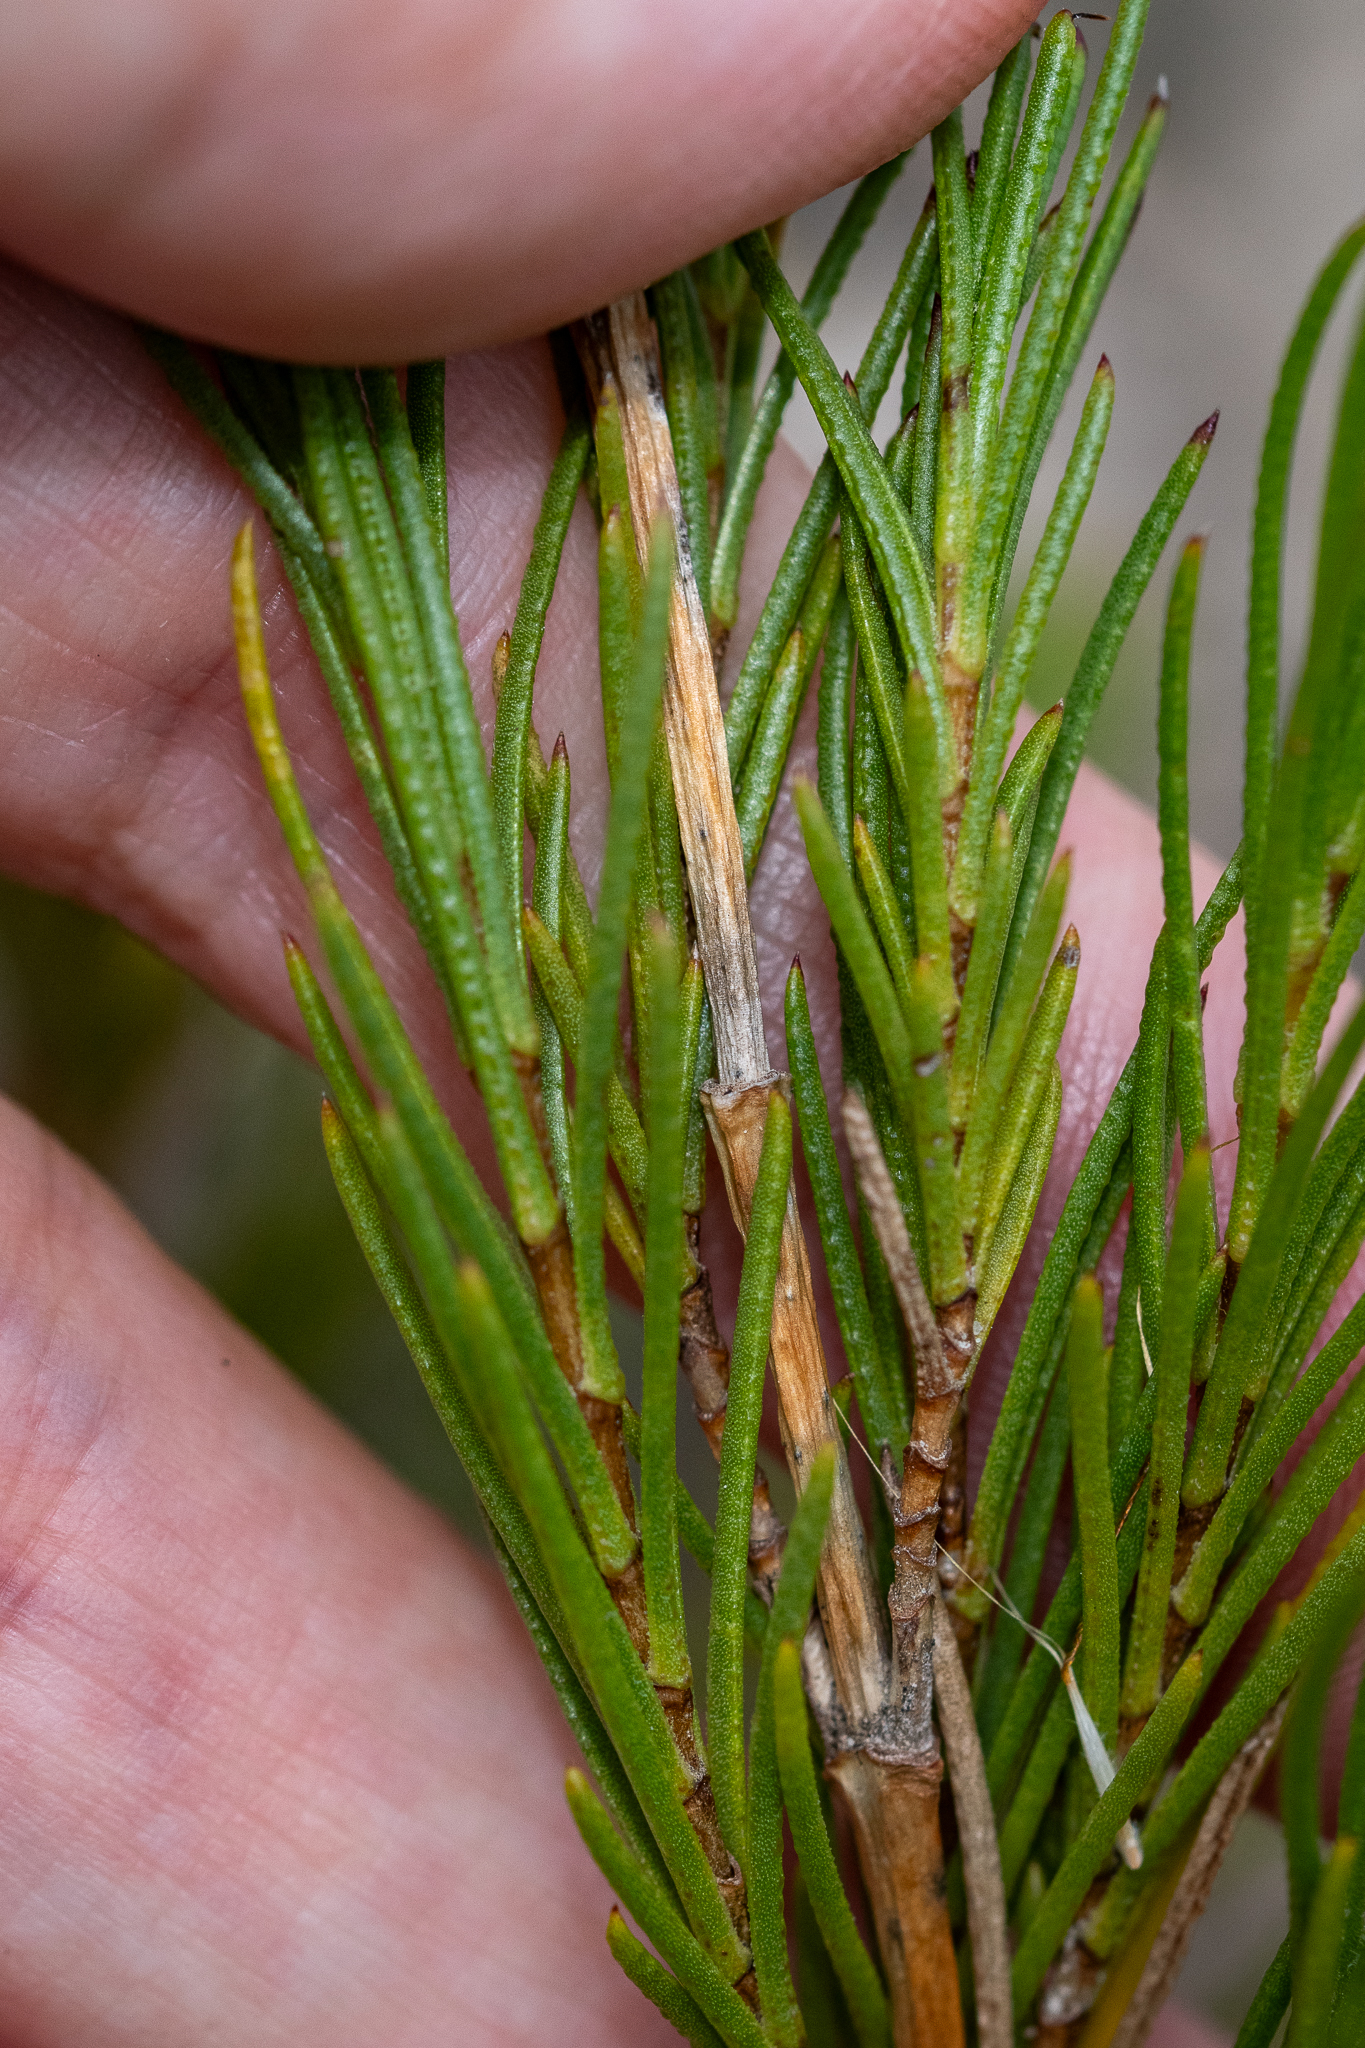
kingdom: Plantae
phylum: Tracheophyta
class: Magnoliopsida
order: Asterales
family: Asteraceae
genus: Pteronia
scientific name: Pteronia tenuifolia
